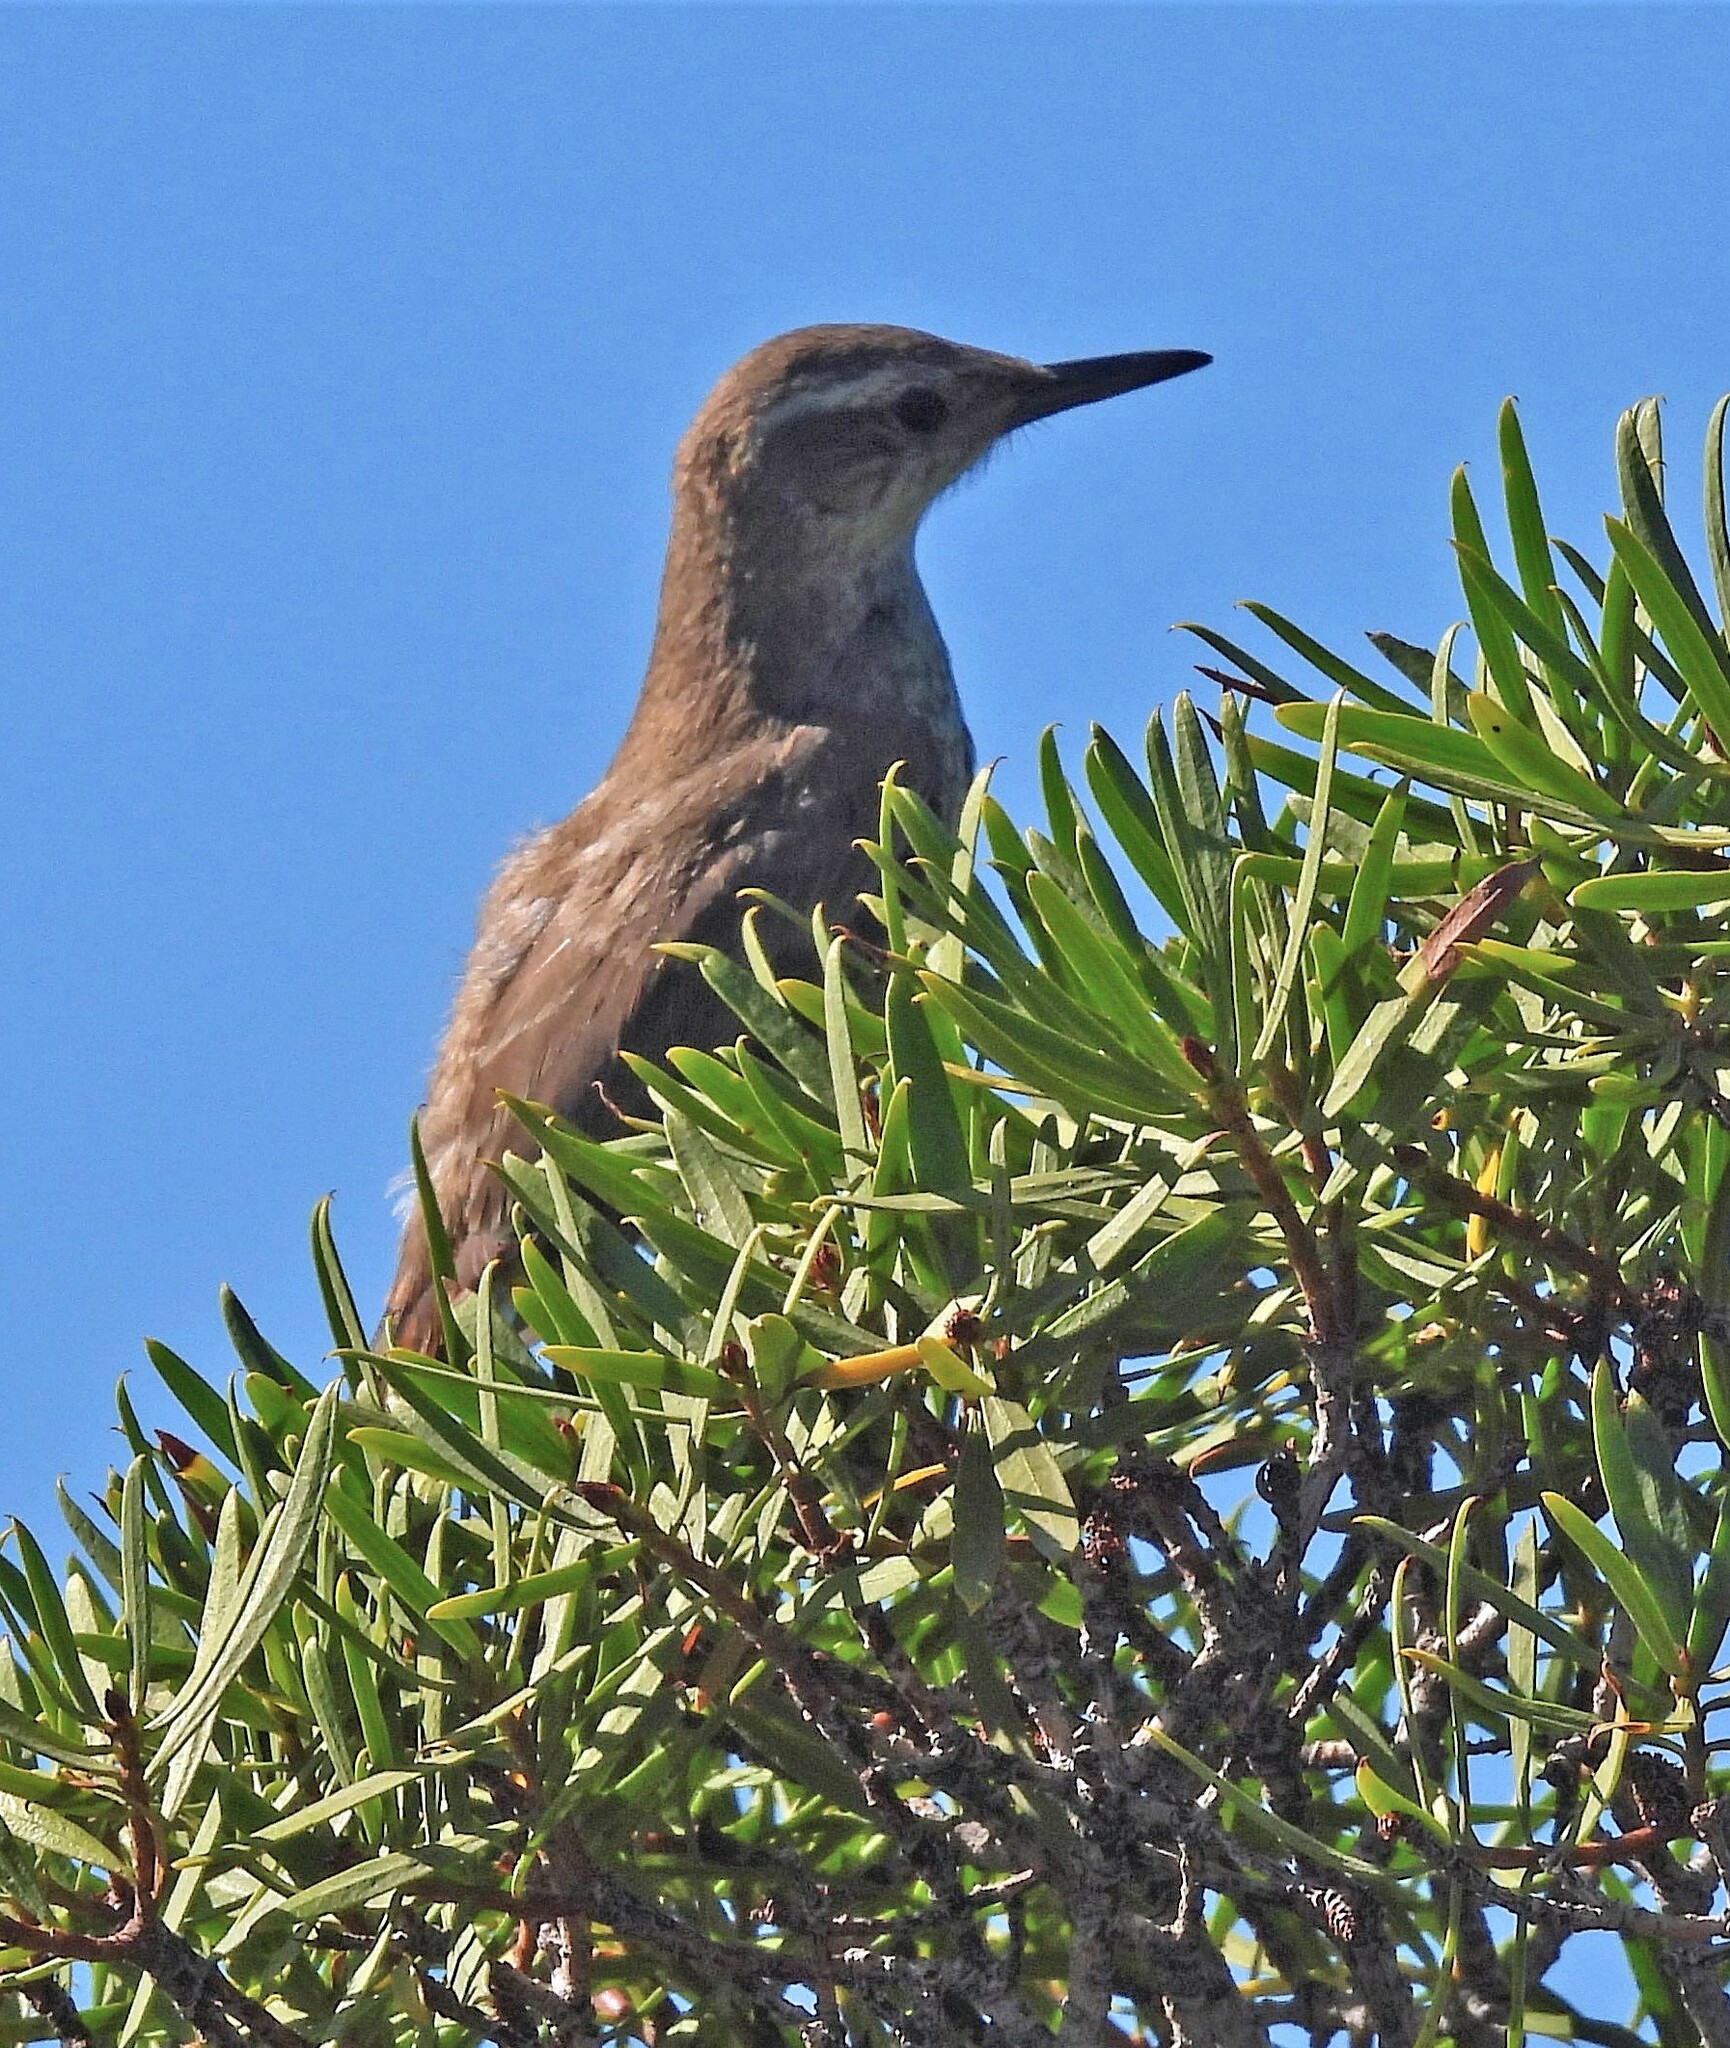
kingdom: Animalia
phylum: Chordata
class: Aves
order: Passeriformes
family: Furnariidae
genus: Eremobius
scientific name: Eremobius phoenicurus
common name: Band-tailed eremobius
